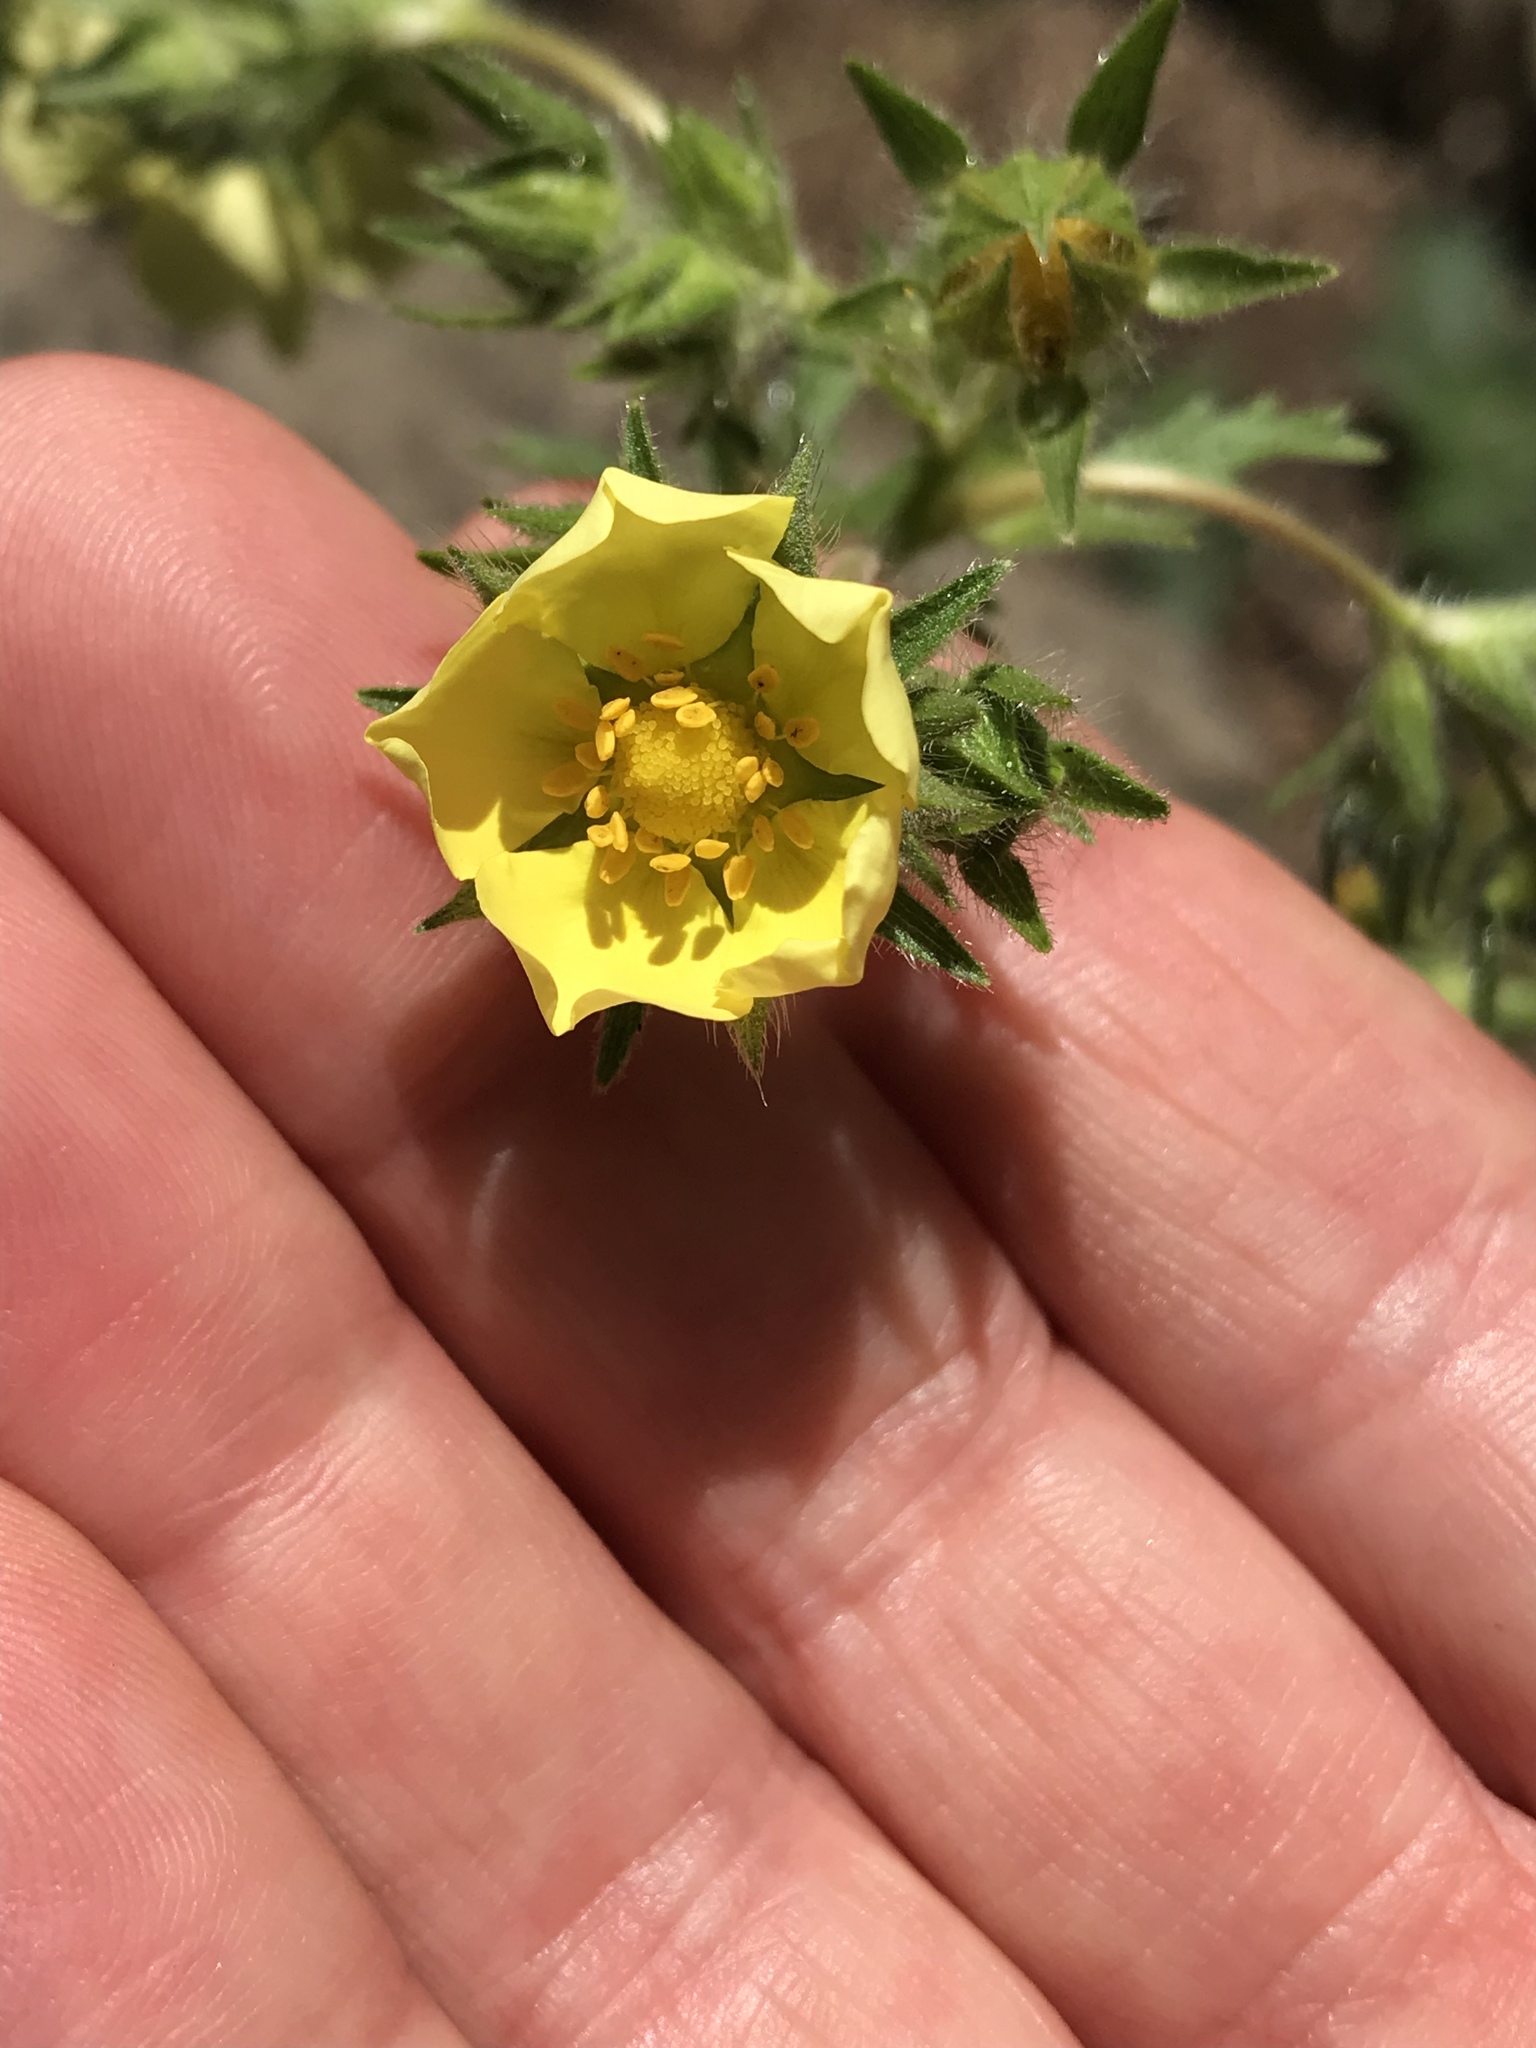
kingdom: Plantae
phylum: Tracheophyta
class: Magnoliopsida
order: Rosales
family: Rosaceae
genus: Potentilla
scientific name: Potentilla recta
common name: Sulphur cinquefoil
